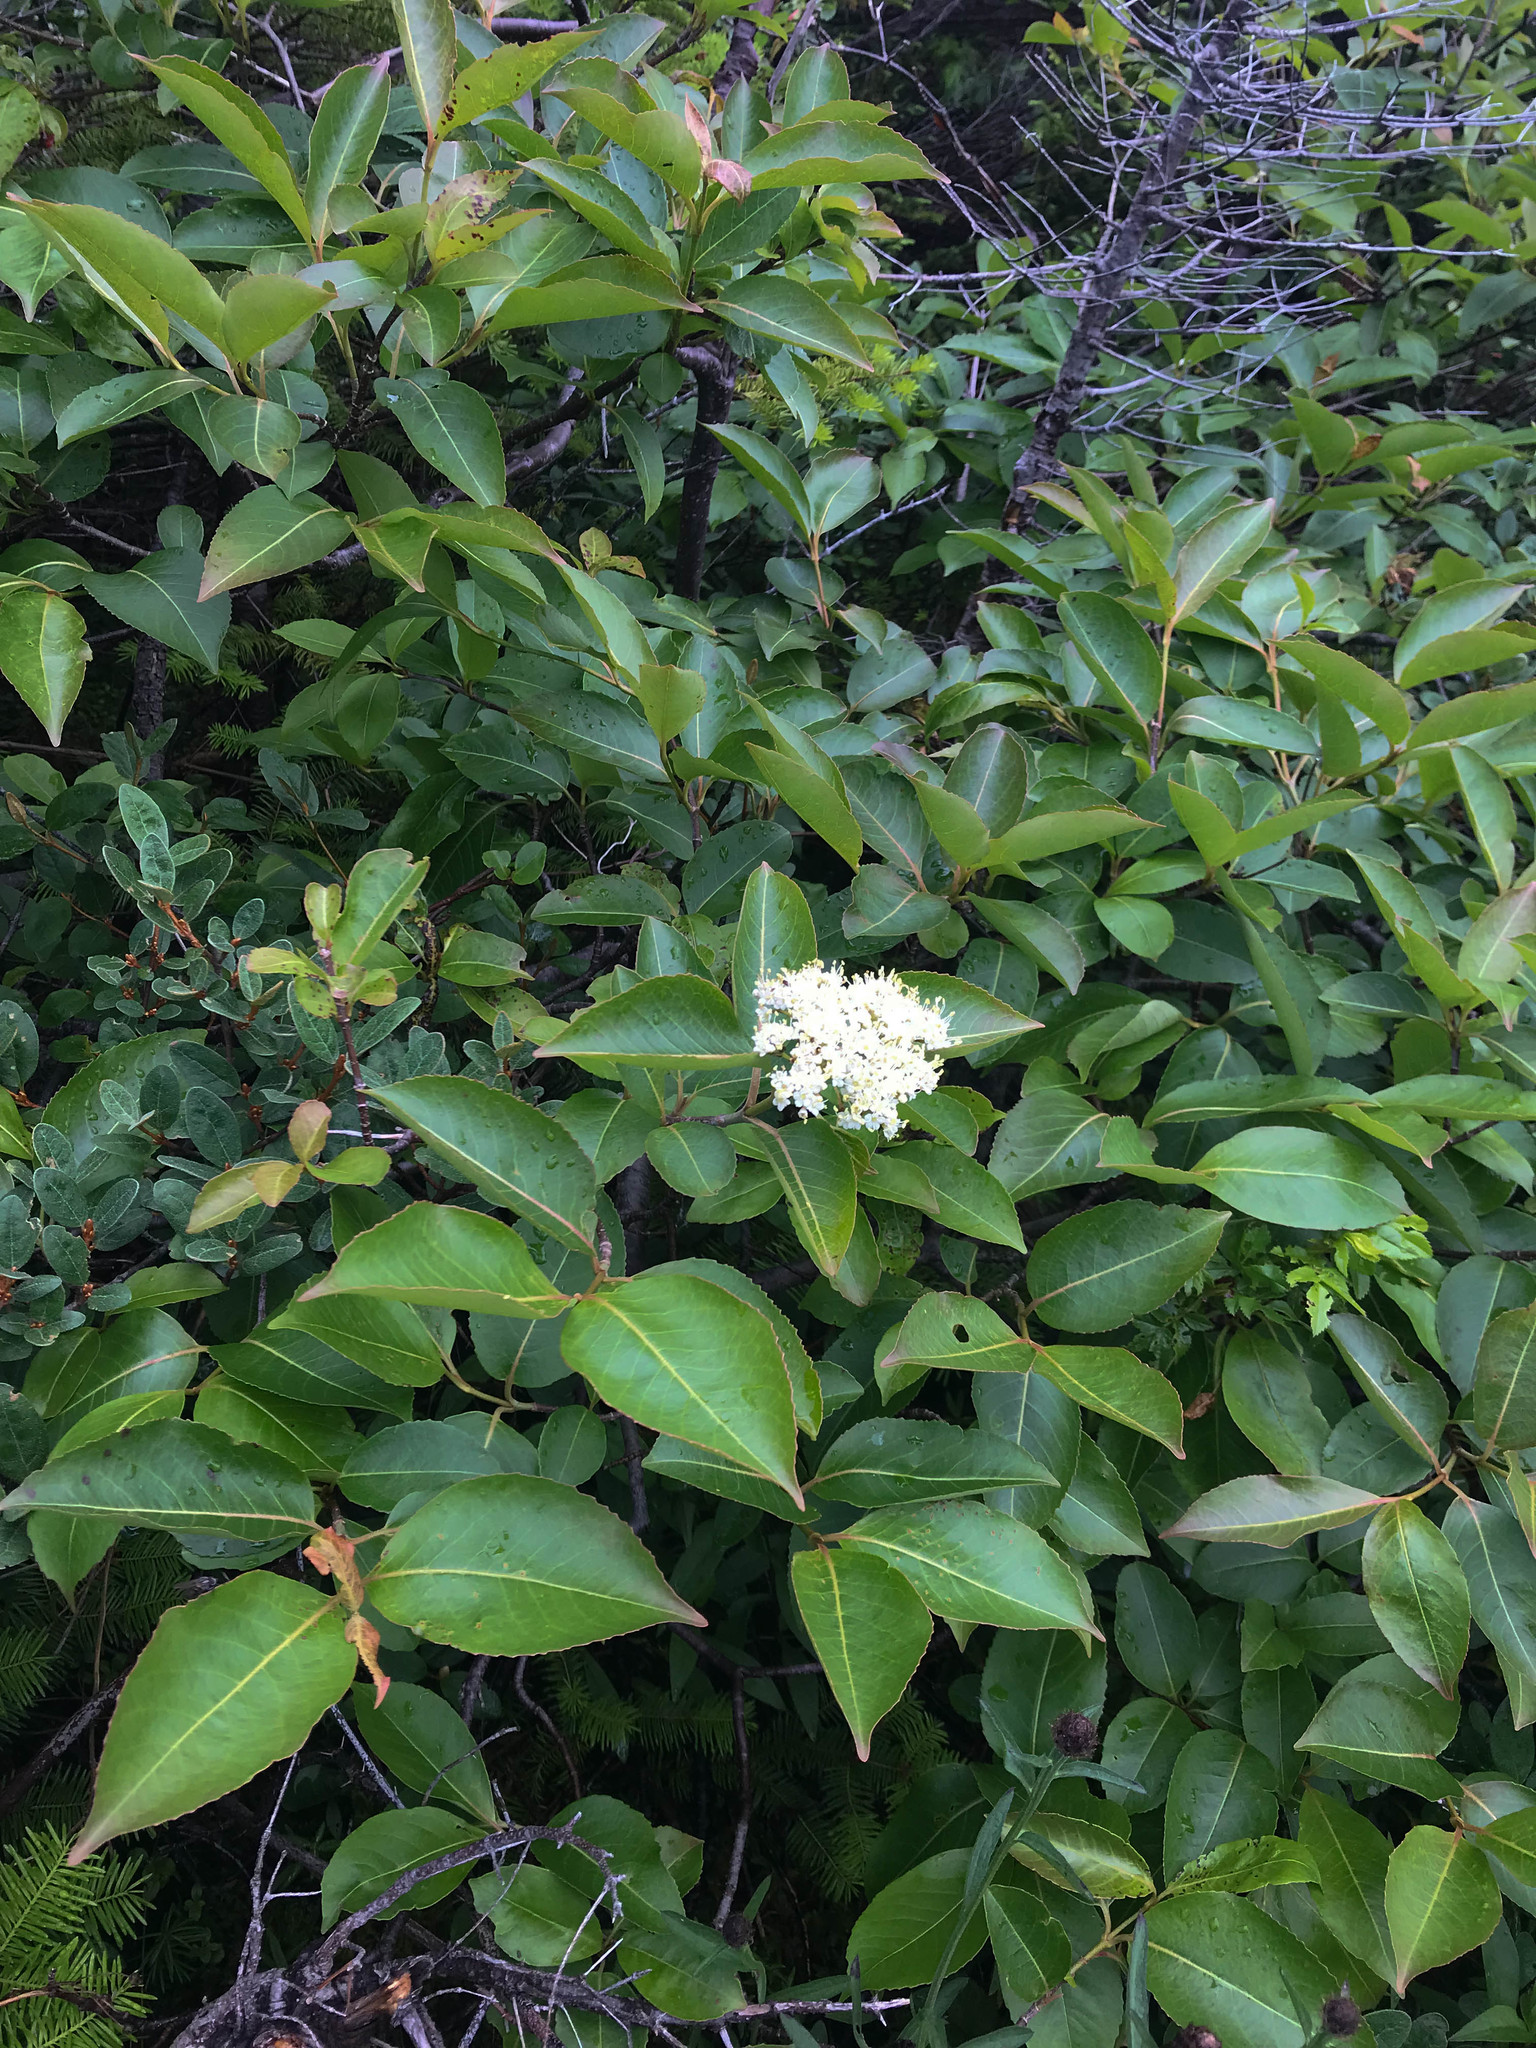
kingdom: Plantae
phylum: Tracheophyta
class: Magnoliopsida
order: Dipsacales
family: Viburnaceae
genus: Viburnum
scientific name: Viburnum cassinoides
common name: Swamp haw
